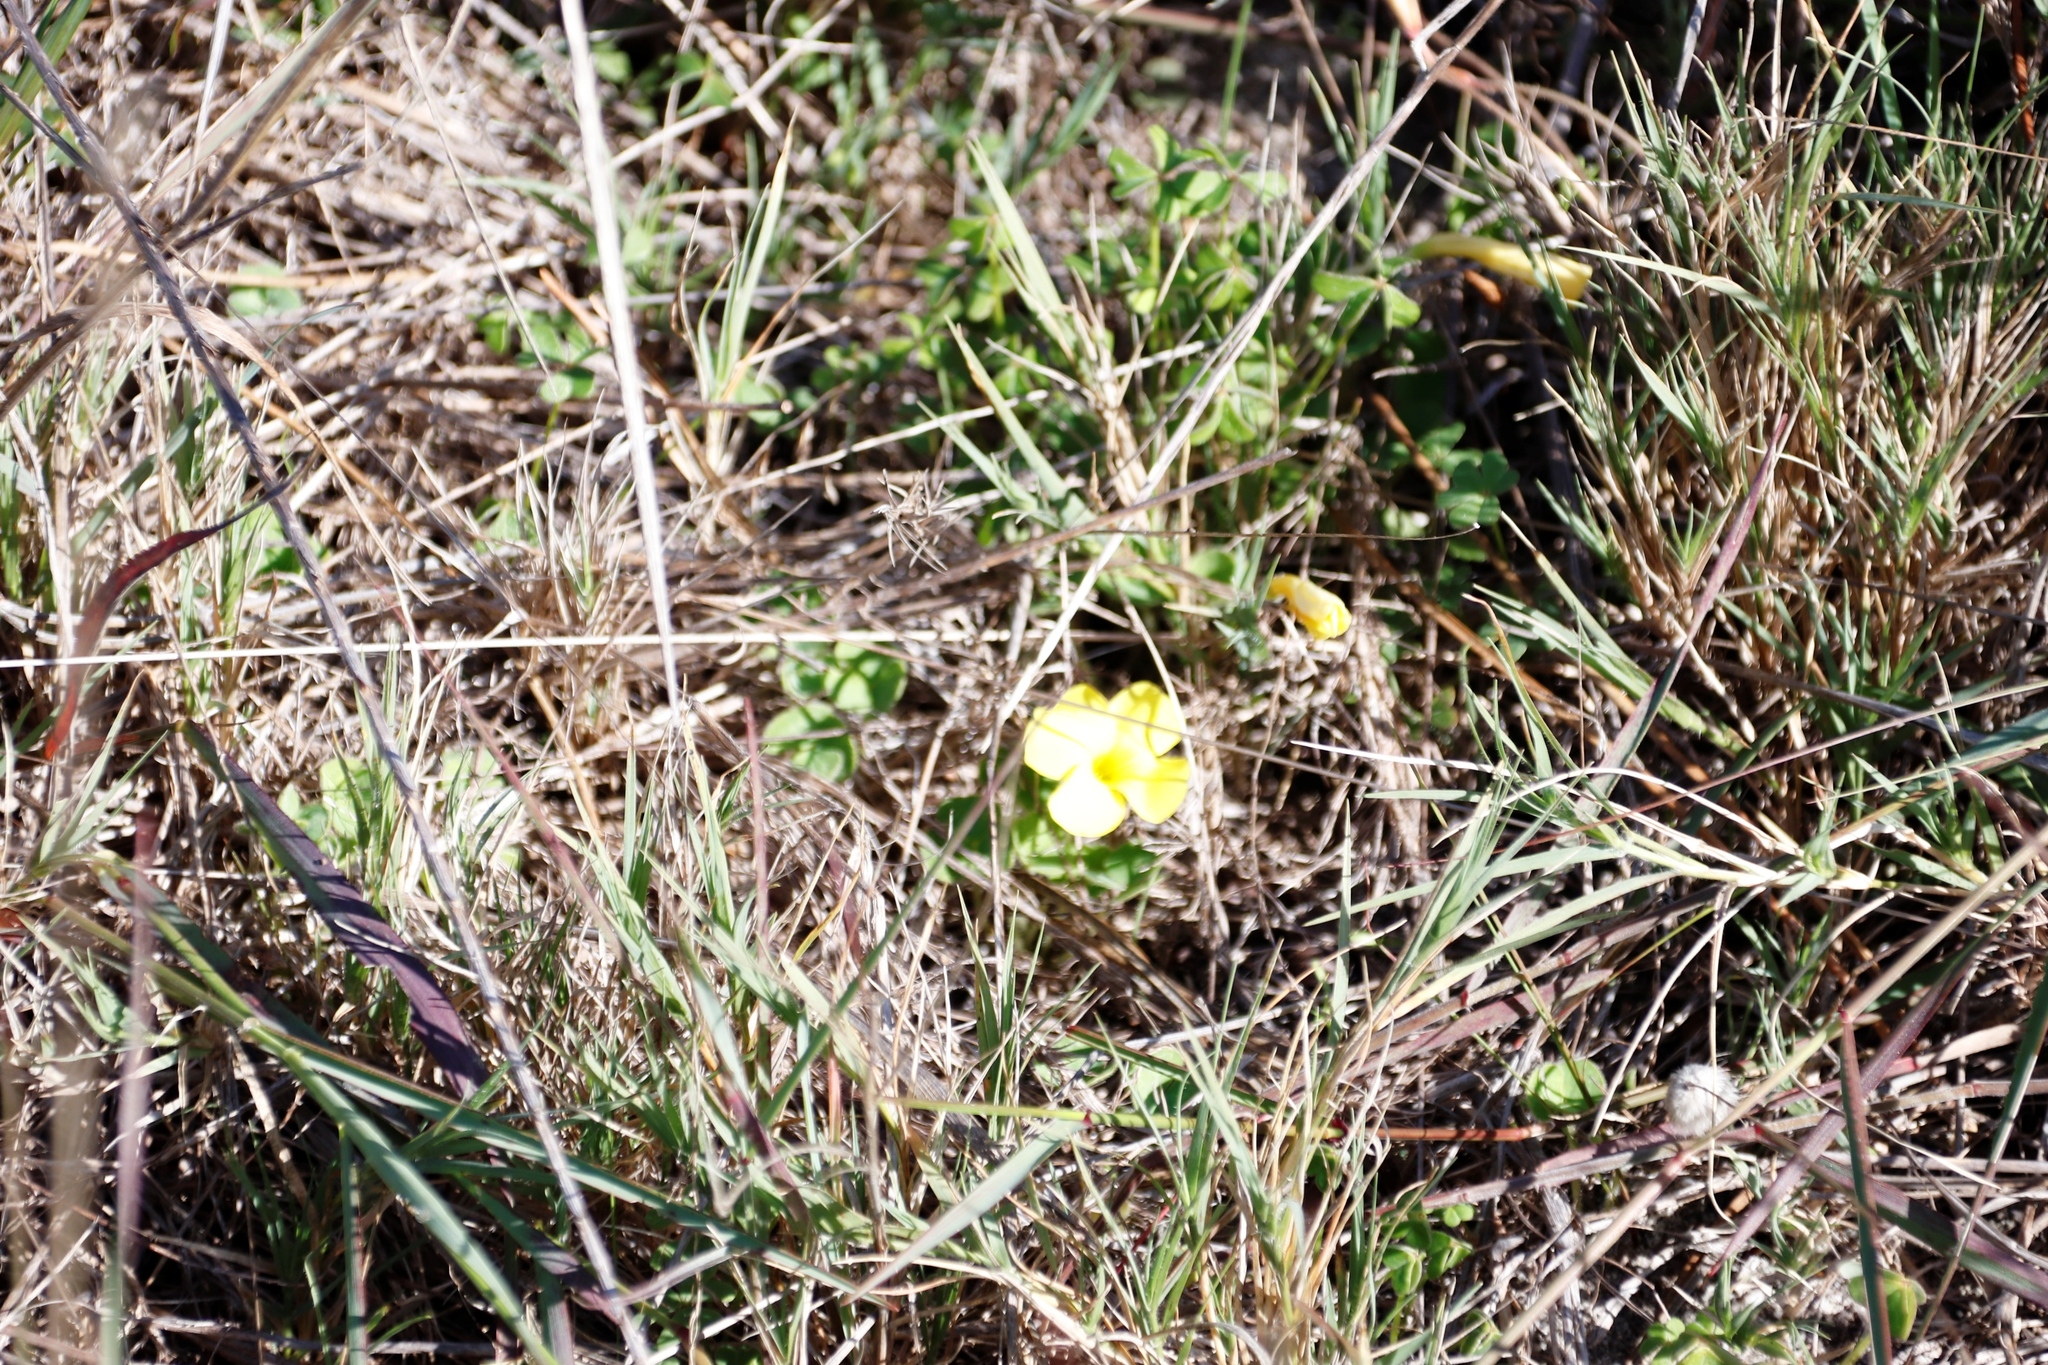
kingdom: Plantae
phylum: Tracheophyta
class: Magnoliopsida
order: Oxalidales
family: Oxalidaceae
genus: Oxalis
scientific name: Oxalis luteola
